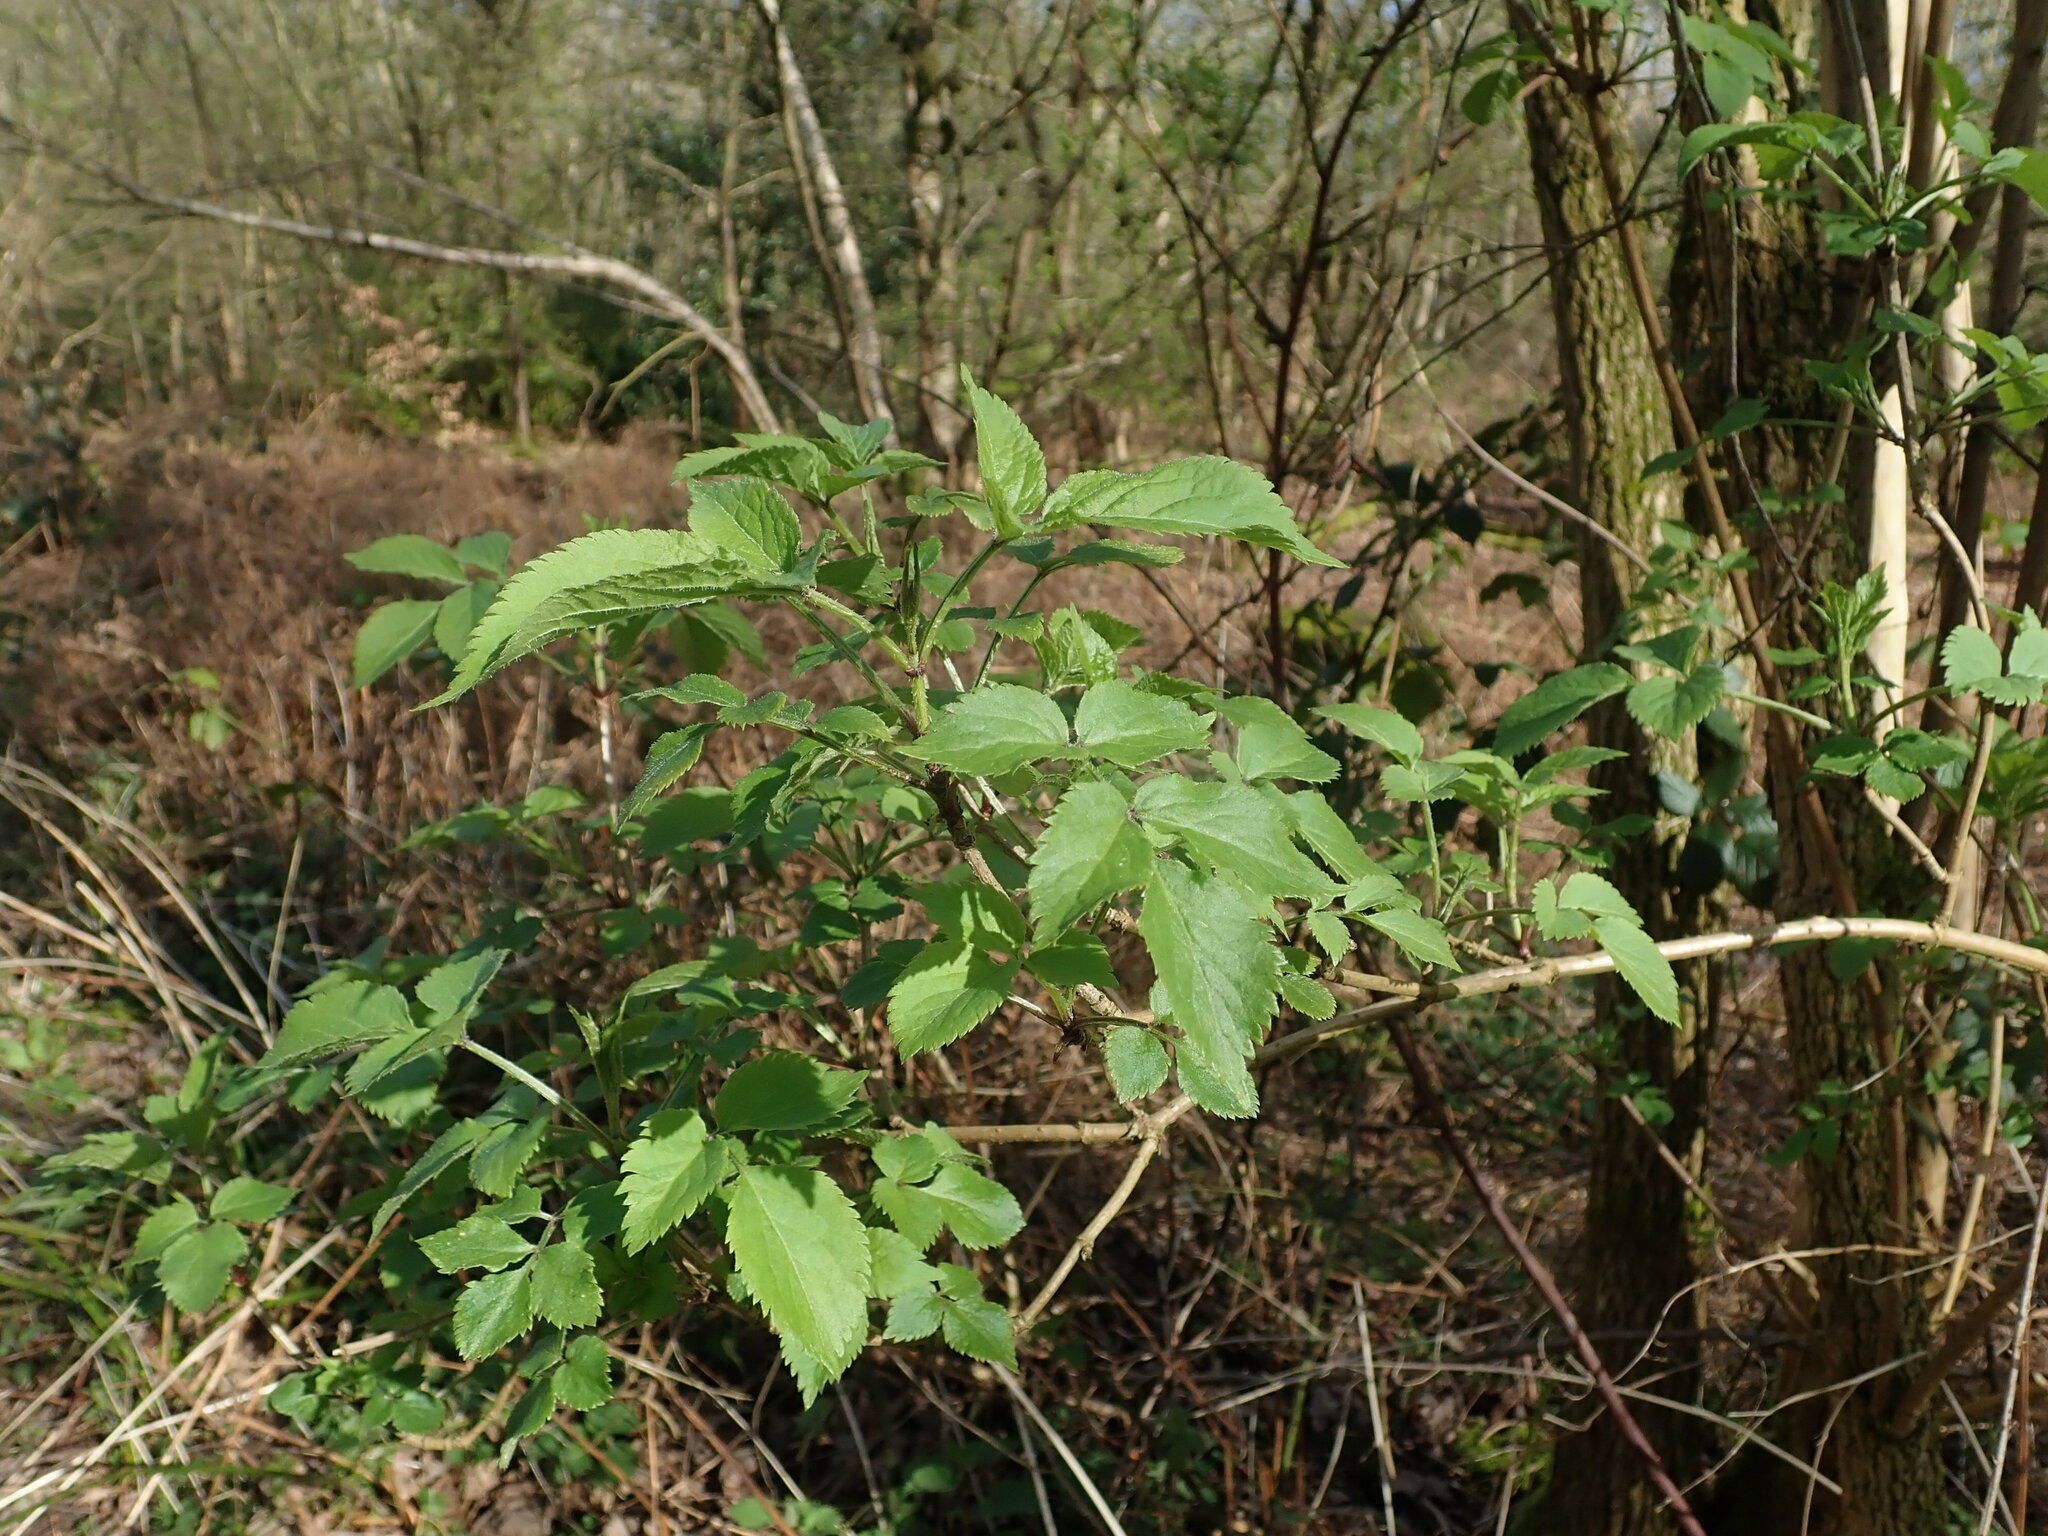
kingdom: Plantae
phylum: Tracheophyta
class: Magnoliopsida
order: Dipsacales
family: Viburnaceae
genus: Sambucus
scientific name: Sambucus nigra
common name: Elder
